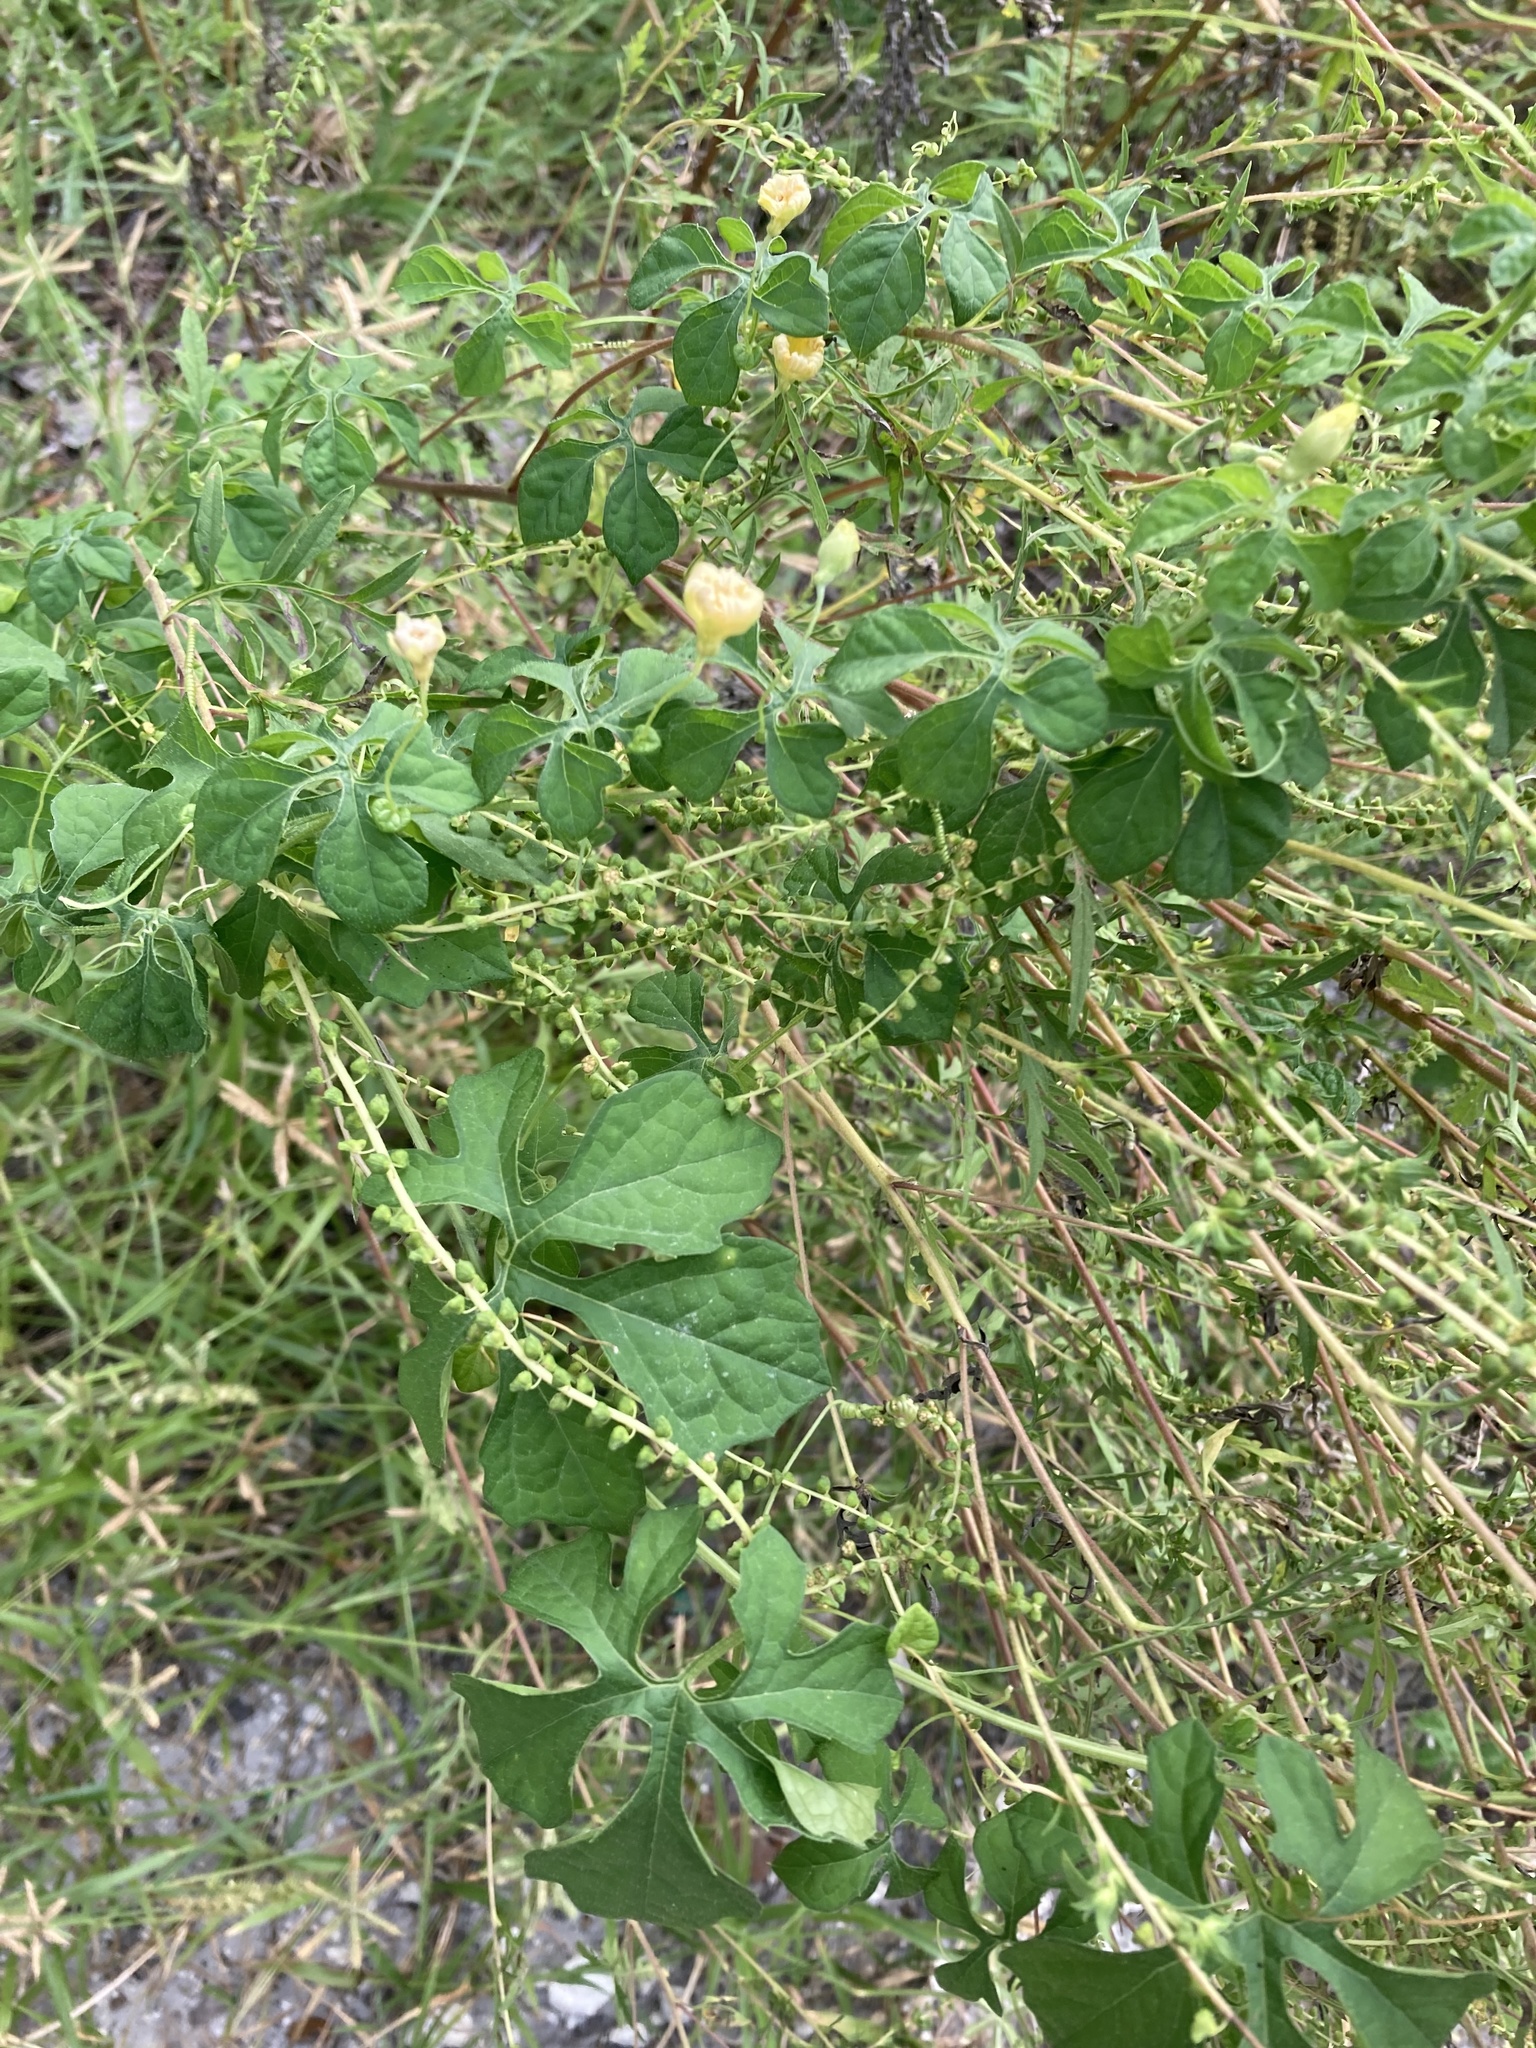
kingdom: Plantae
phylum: Tracheophyta
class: Magnoliopsida
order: Cucurbitales
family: Cucurbitaceae
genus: Momordica
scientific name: Momordica charantia
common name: Balsampear
